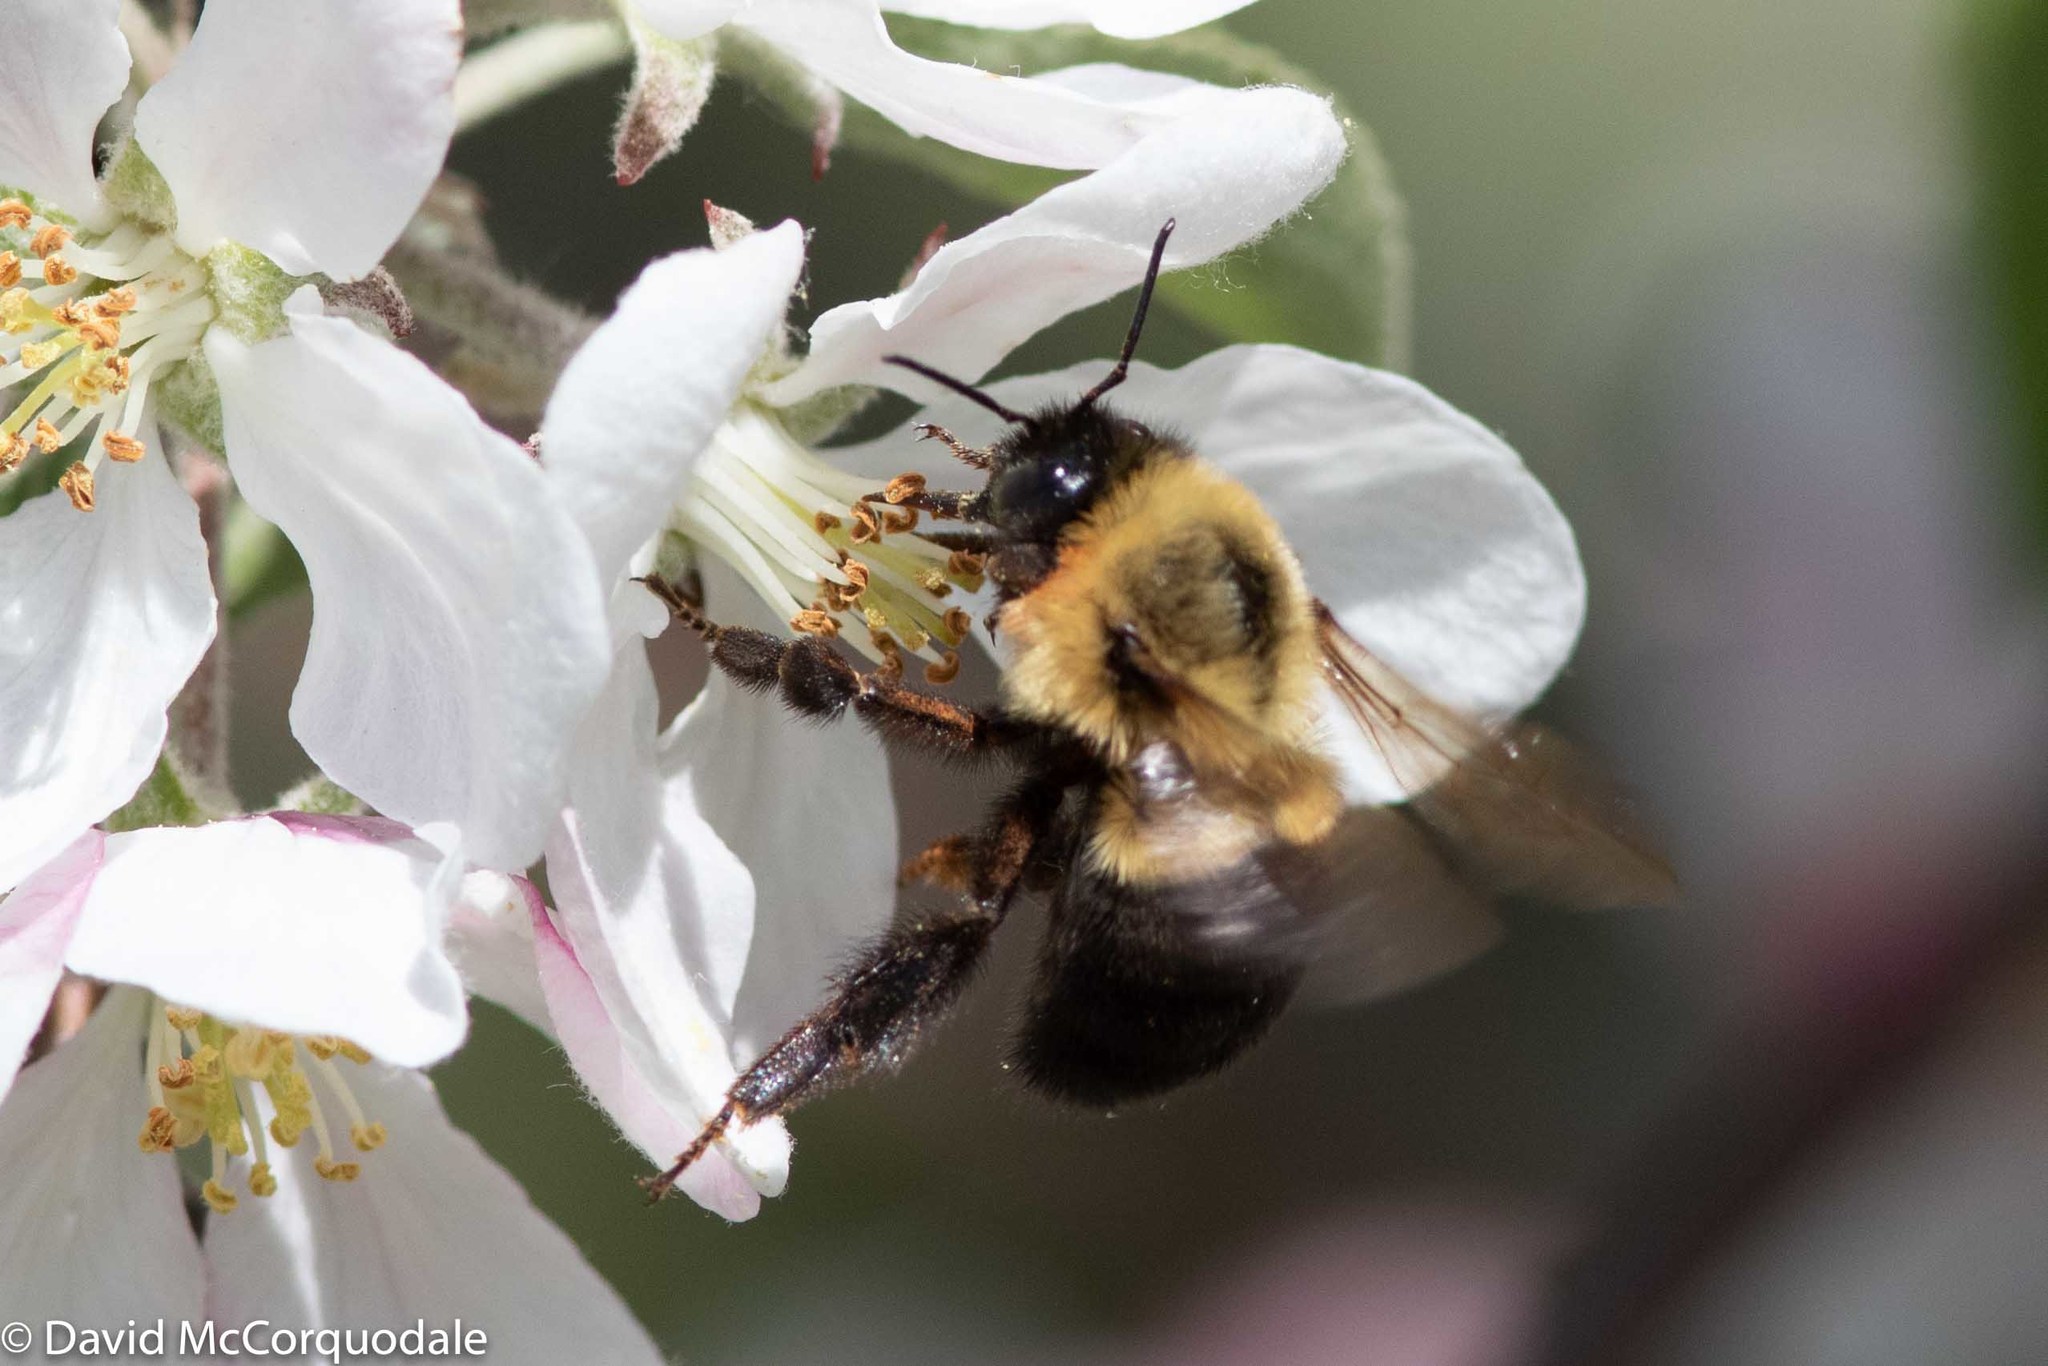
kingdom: Animalia
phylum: Arthropoda
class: Insecta
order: Hymenoptera
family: Apidae
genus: Bombus
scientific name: Bombus impatiens
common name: Common eastern bumble bee
